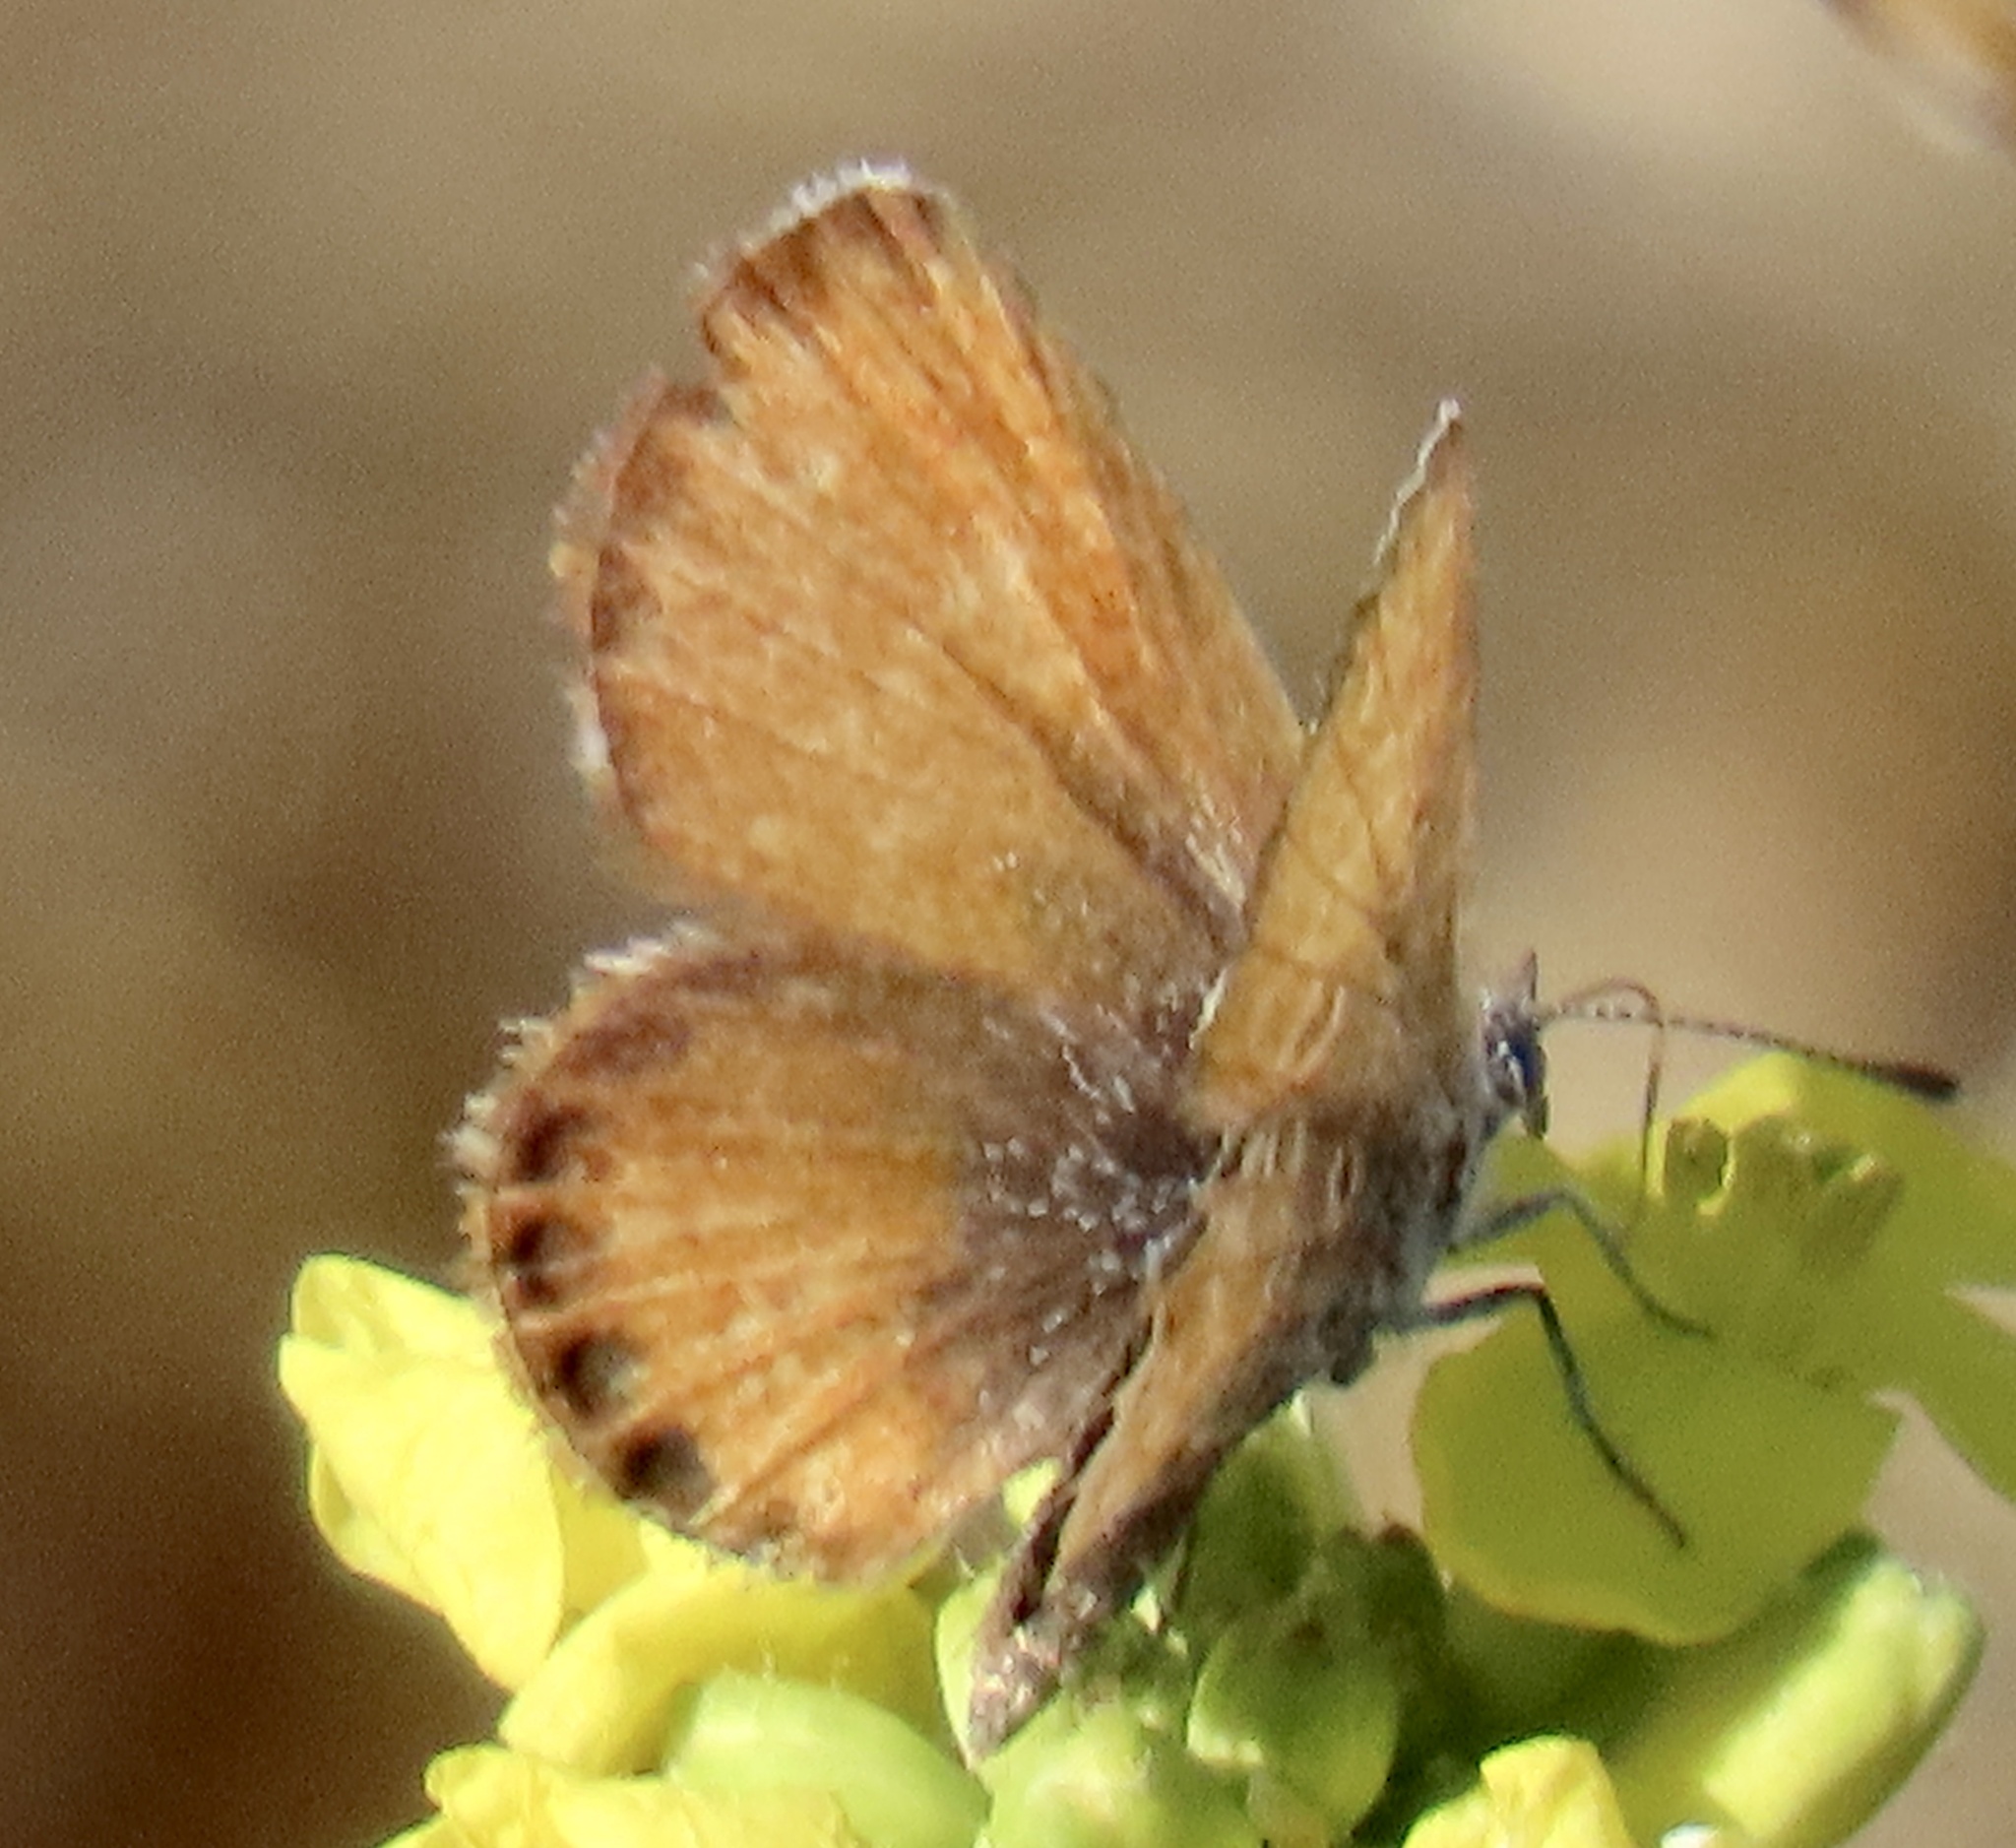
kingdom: Animalia
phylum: Arthropoda
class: Insecta
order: Lepidoptera
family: Lycaenidae
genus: Brephidium
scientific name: Brephidium exilis
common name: Pygmy blue
